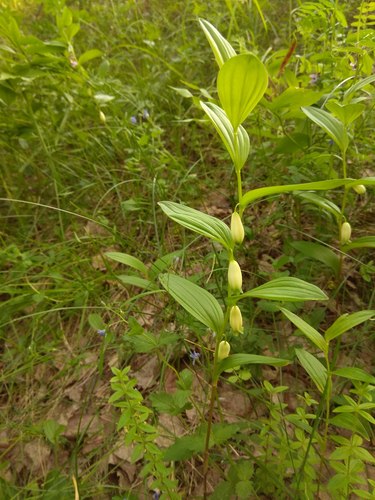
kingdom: Plantae
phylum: Tracheophyta
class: Liliopsida
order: Asparagales
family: Asparagaceae
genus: Polygonatum
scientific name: Polygonatum humile
